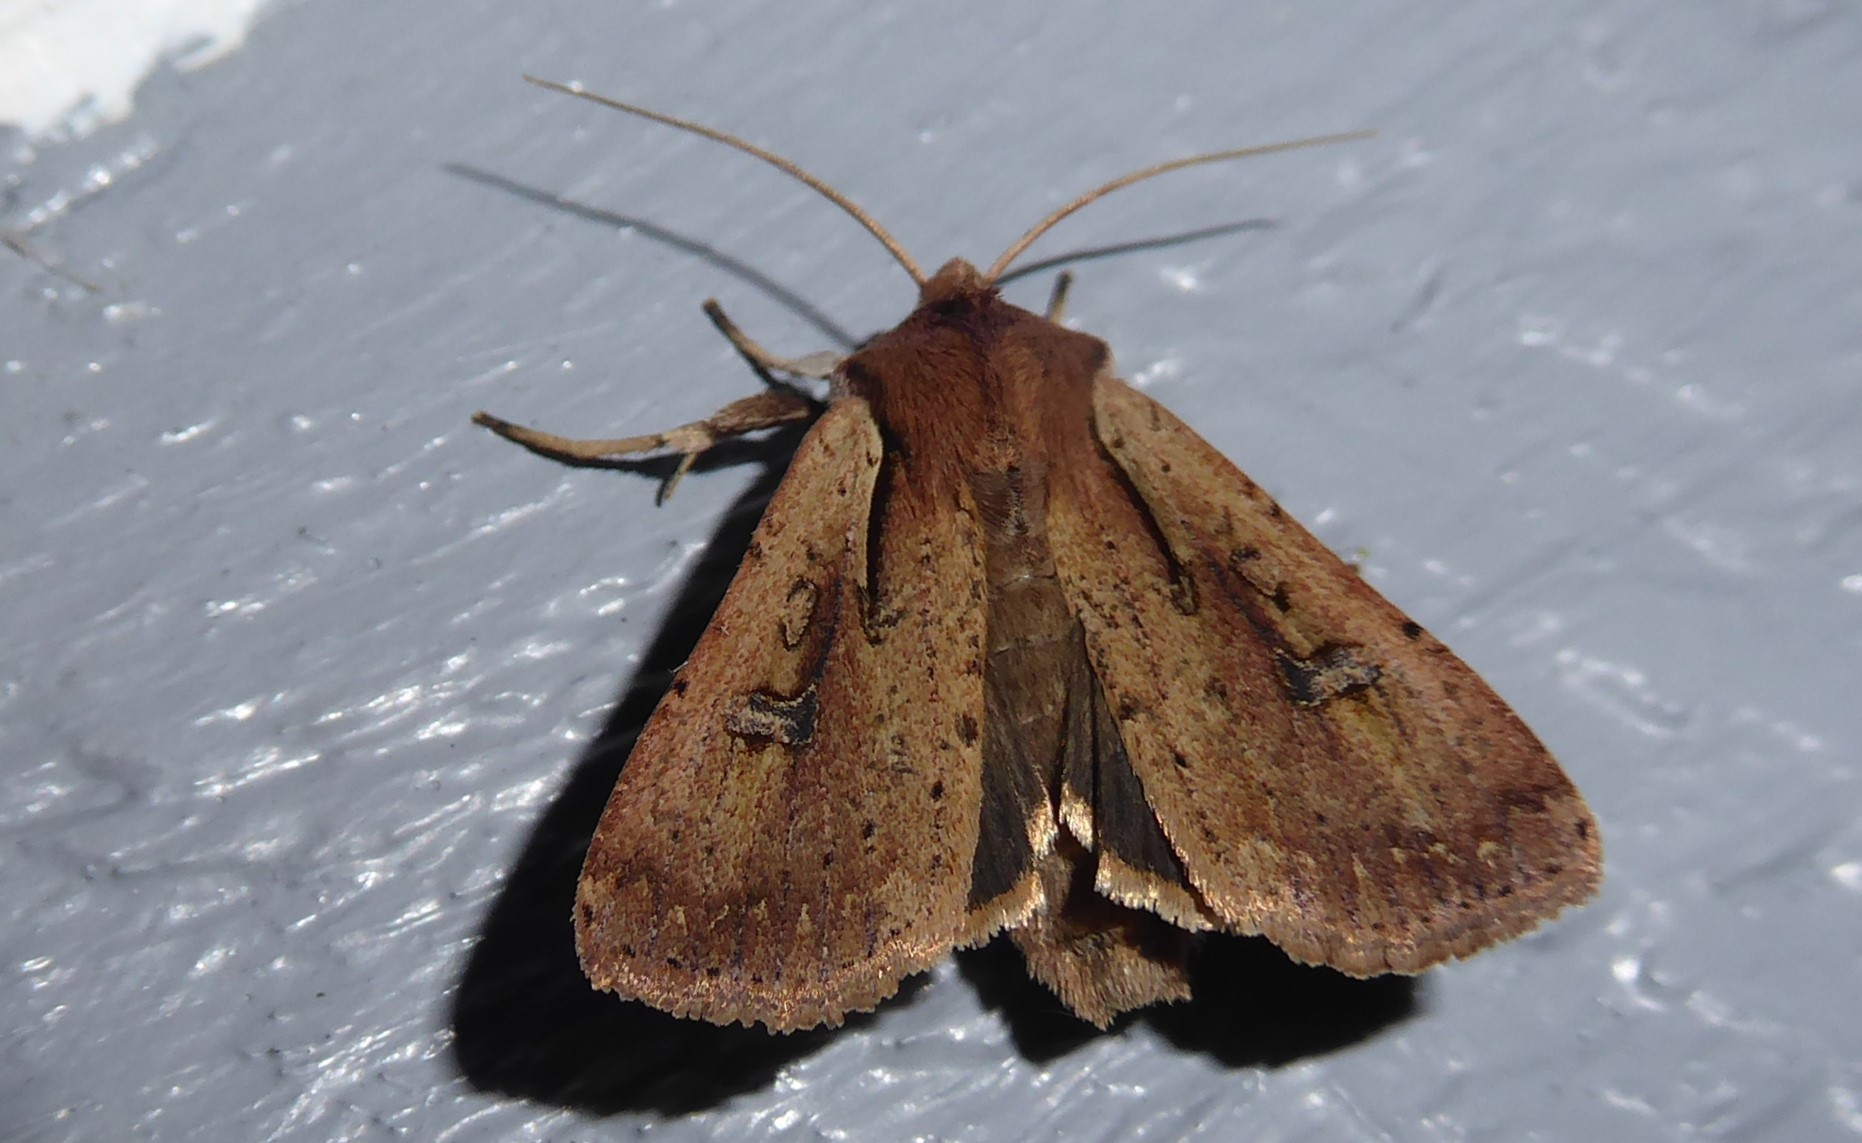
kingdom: Animalia
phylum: Arthropoda
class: Insecta
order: Lepidoptera
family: Noctuidae
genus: Ichneutica
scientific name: Ichneutica atristriga
